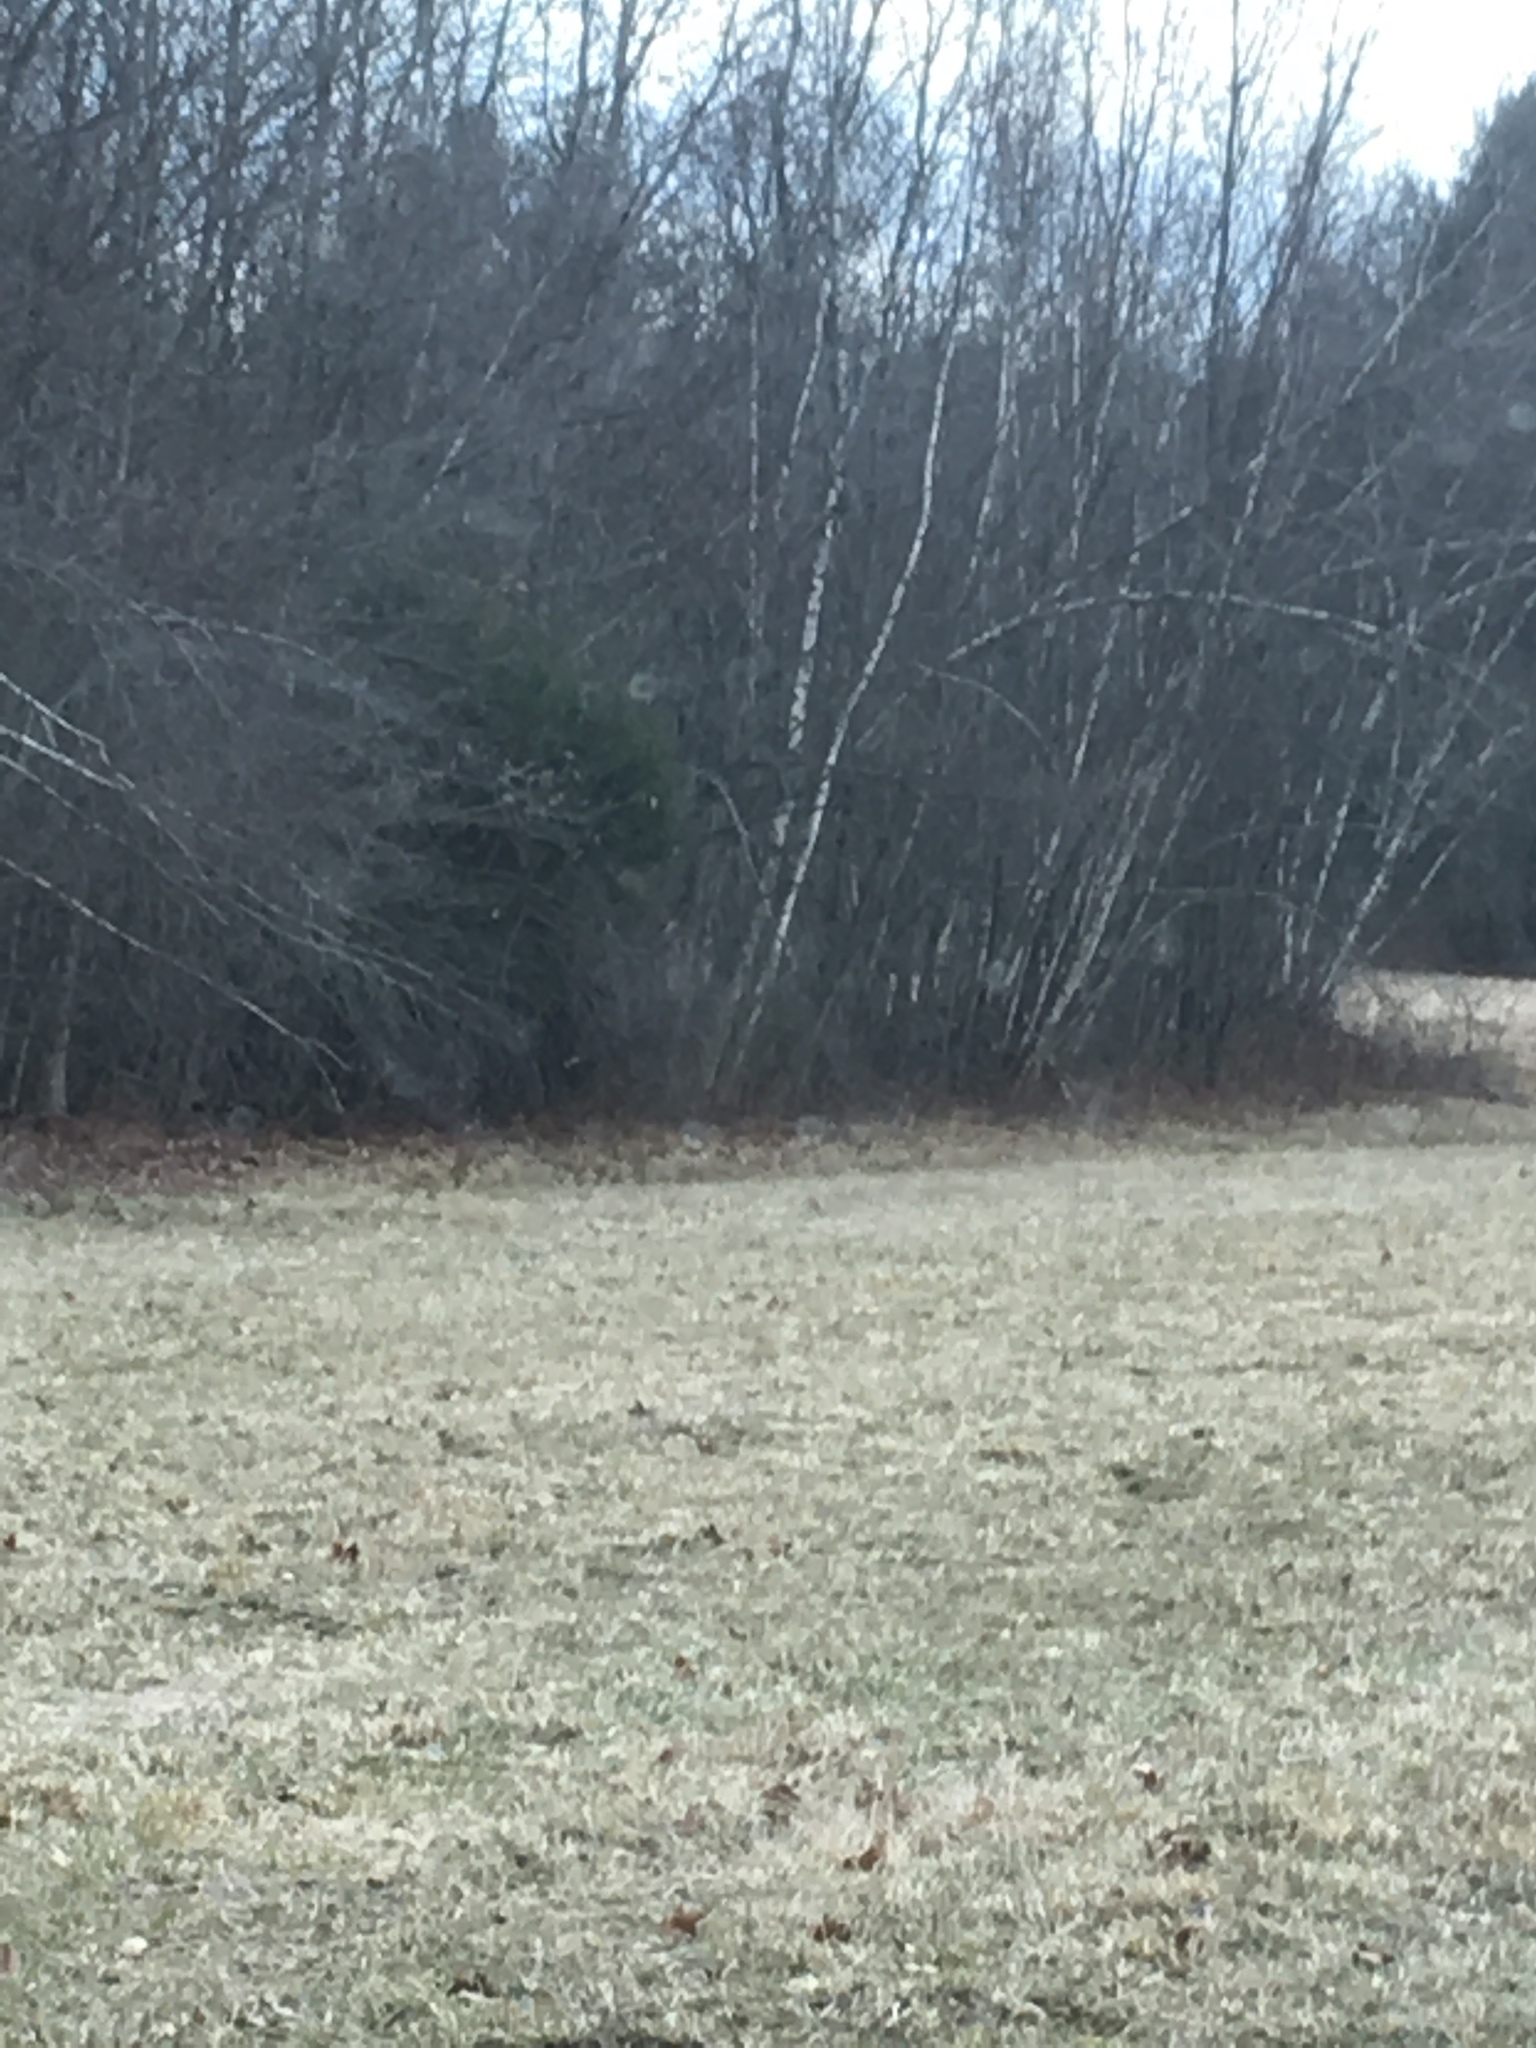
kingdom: Plantae
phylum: Tracheophyta
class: Magnoliopsida
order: Fagales
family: Betulaceae
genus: Betula
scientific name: Betula populifolia
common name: Fire birch
